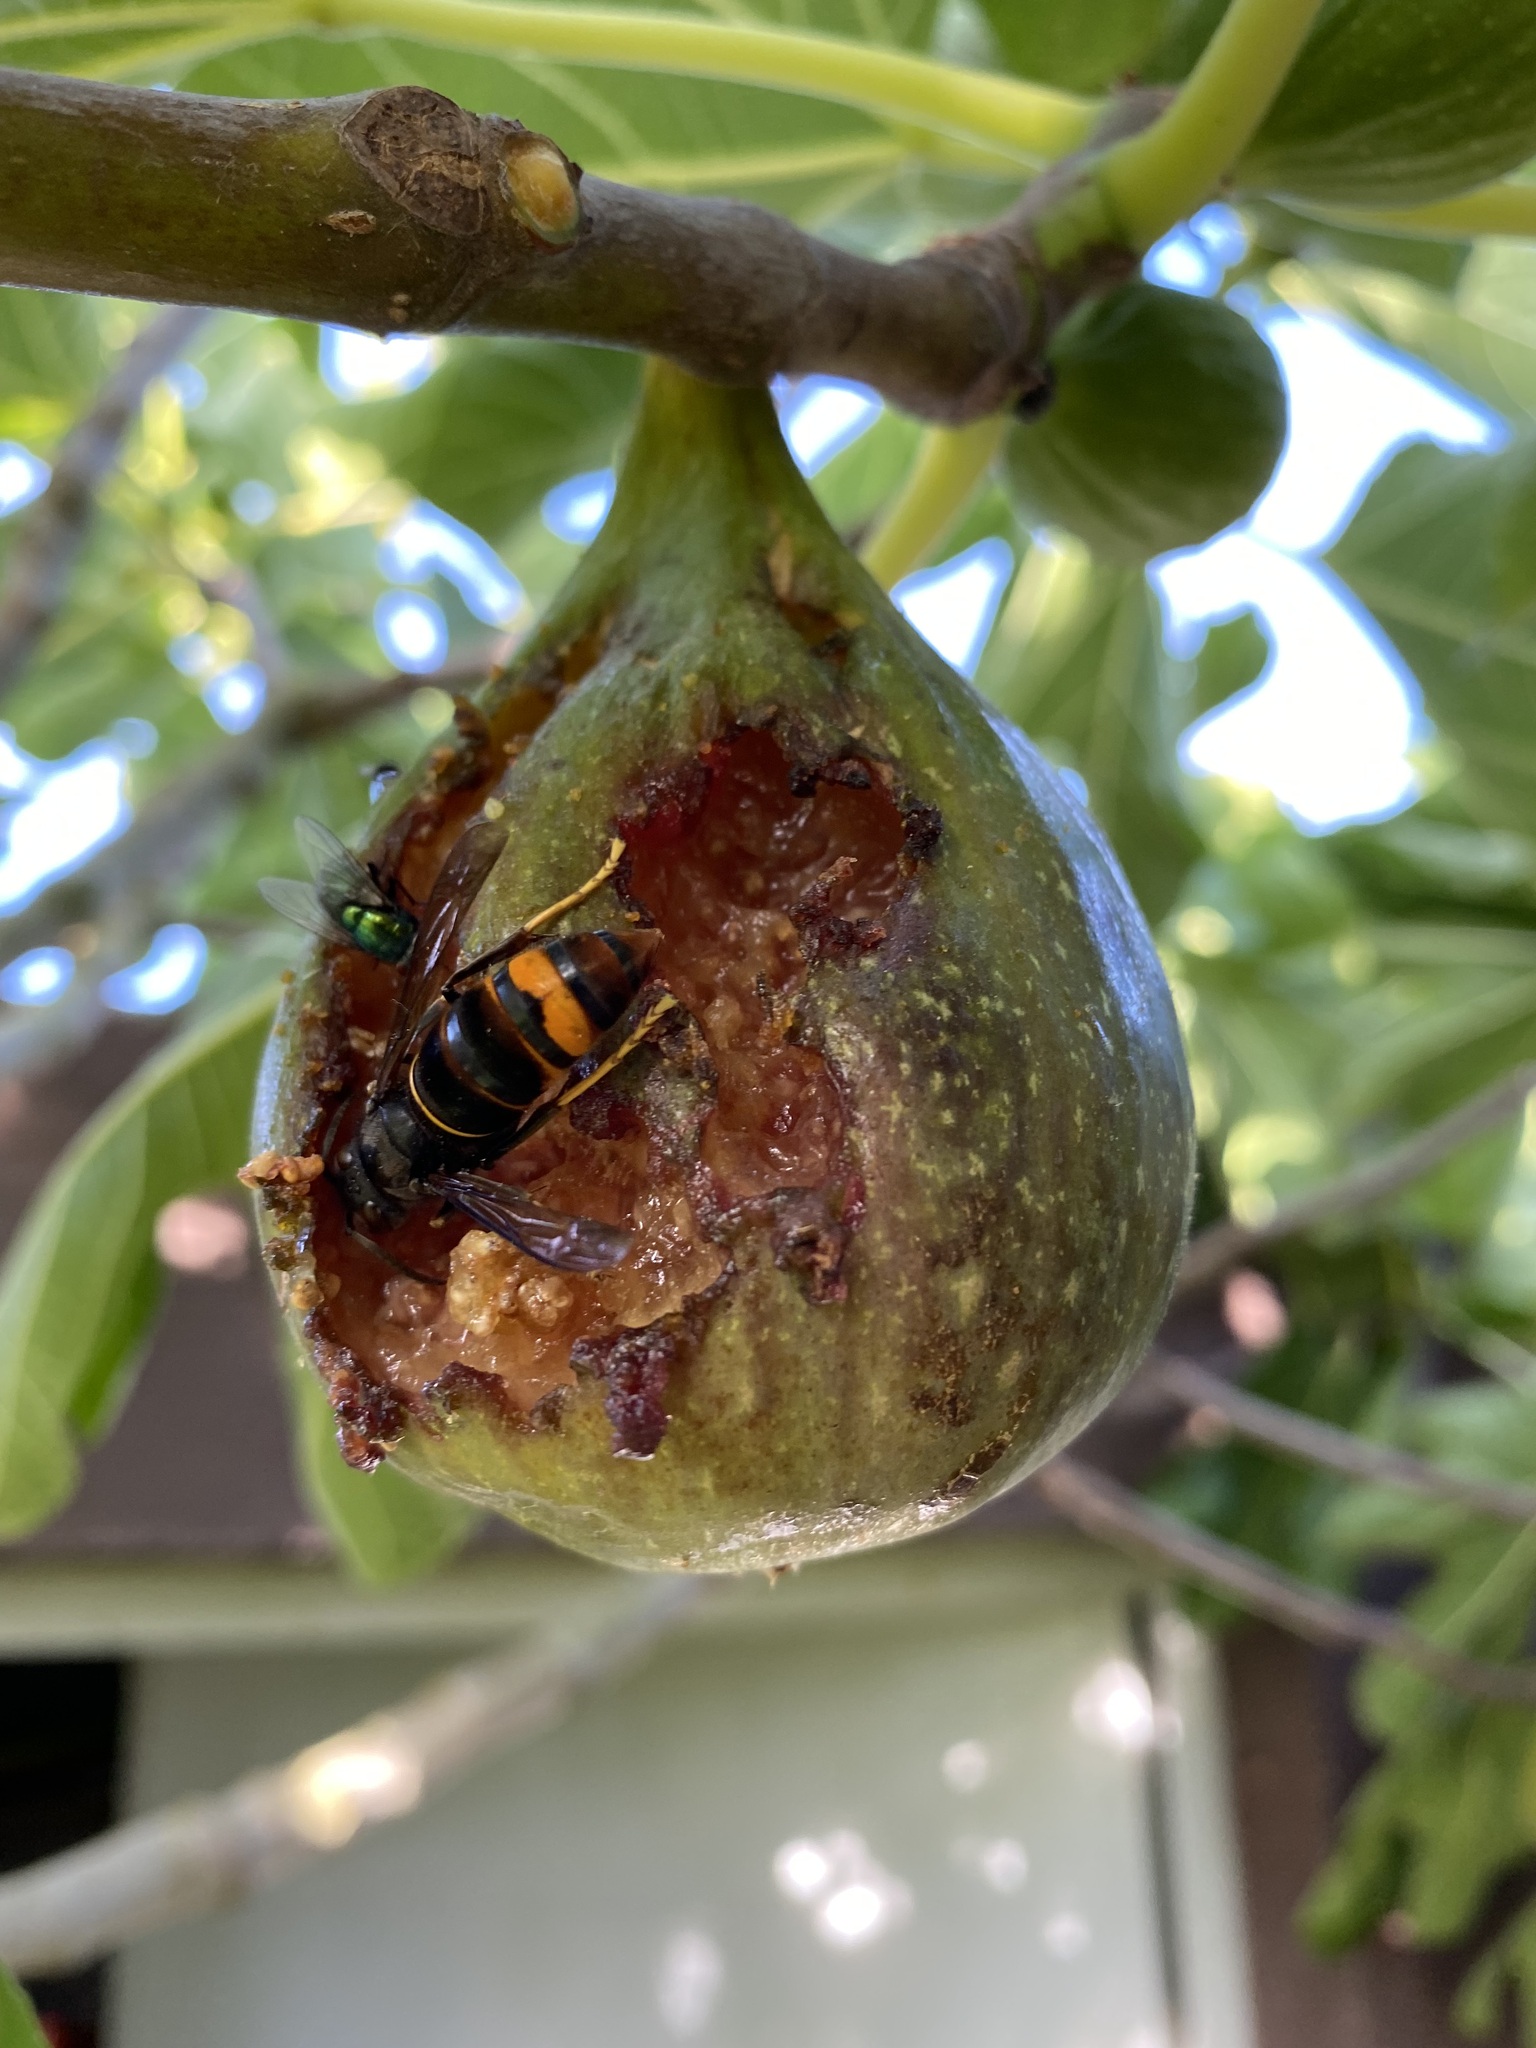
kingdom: Animalia
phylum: Arthropoda
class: Insecta
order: Hymenoptera
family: Vespidae
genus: Vespa
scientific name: Vespa velutina
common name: Asian hornet
